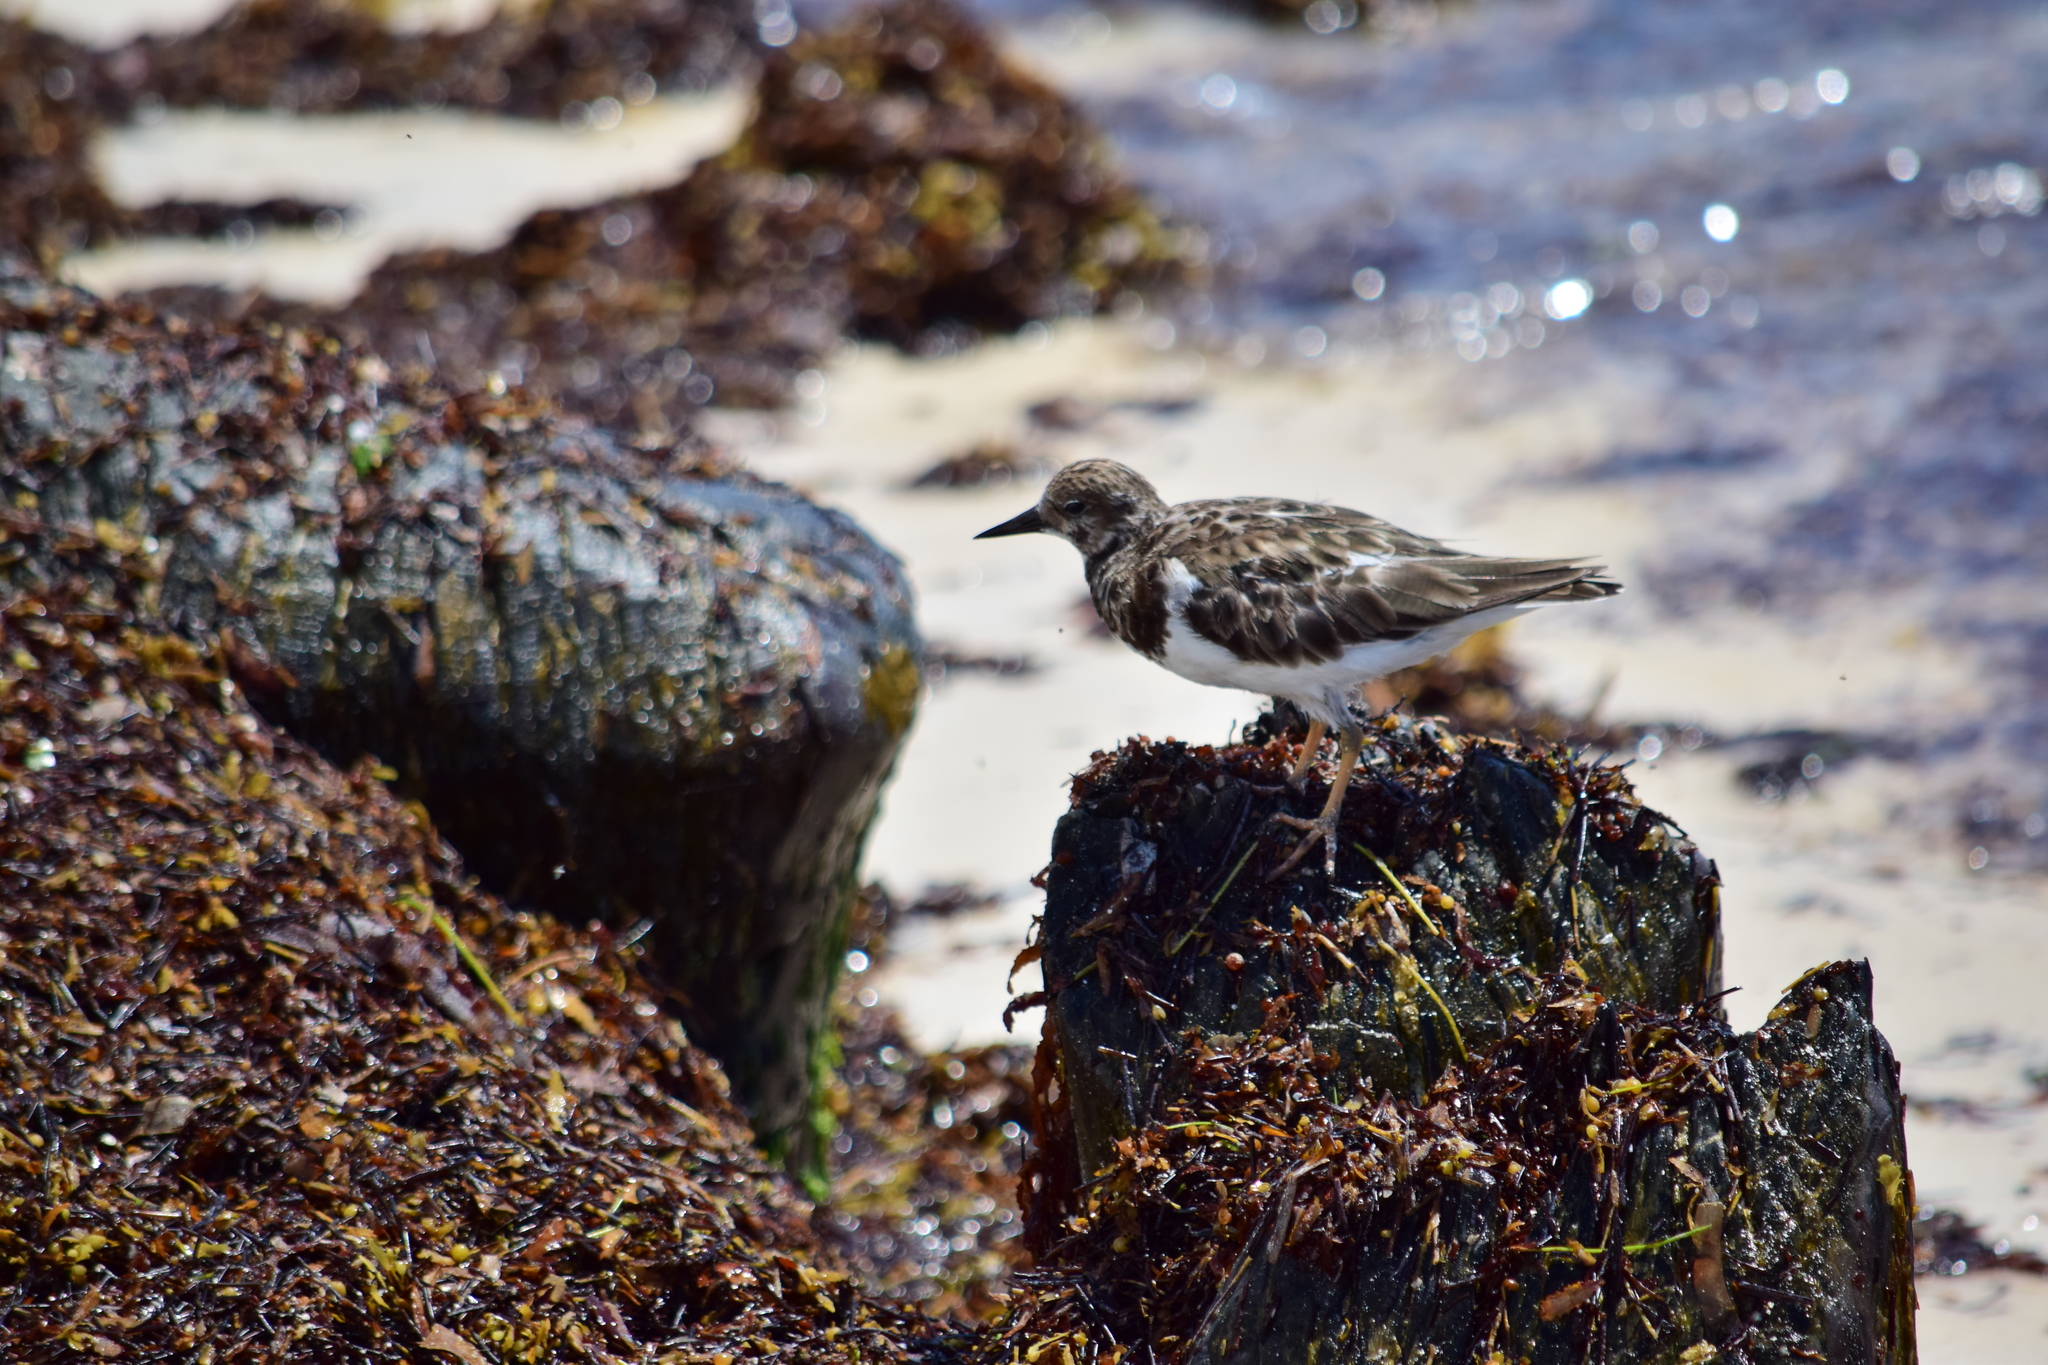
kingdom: Animalia
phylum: Chordata
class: Aves
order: Charadriiformes
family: Scolopacidae
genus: Arenaria
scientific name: Arenaria interpres
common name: Ruddy turnstone
